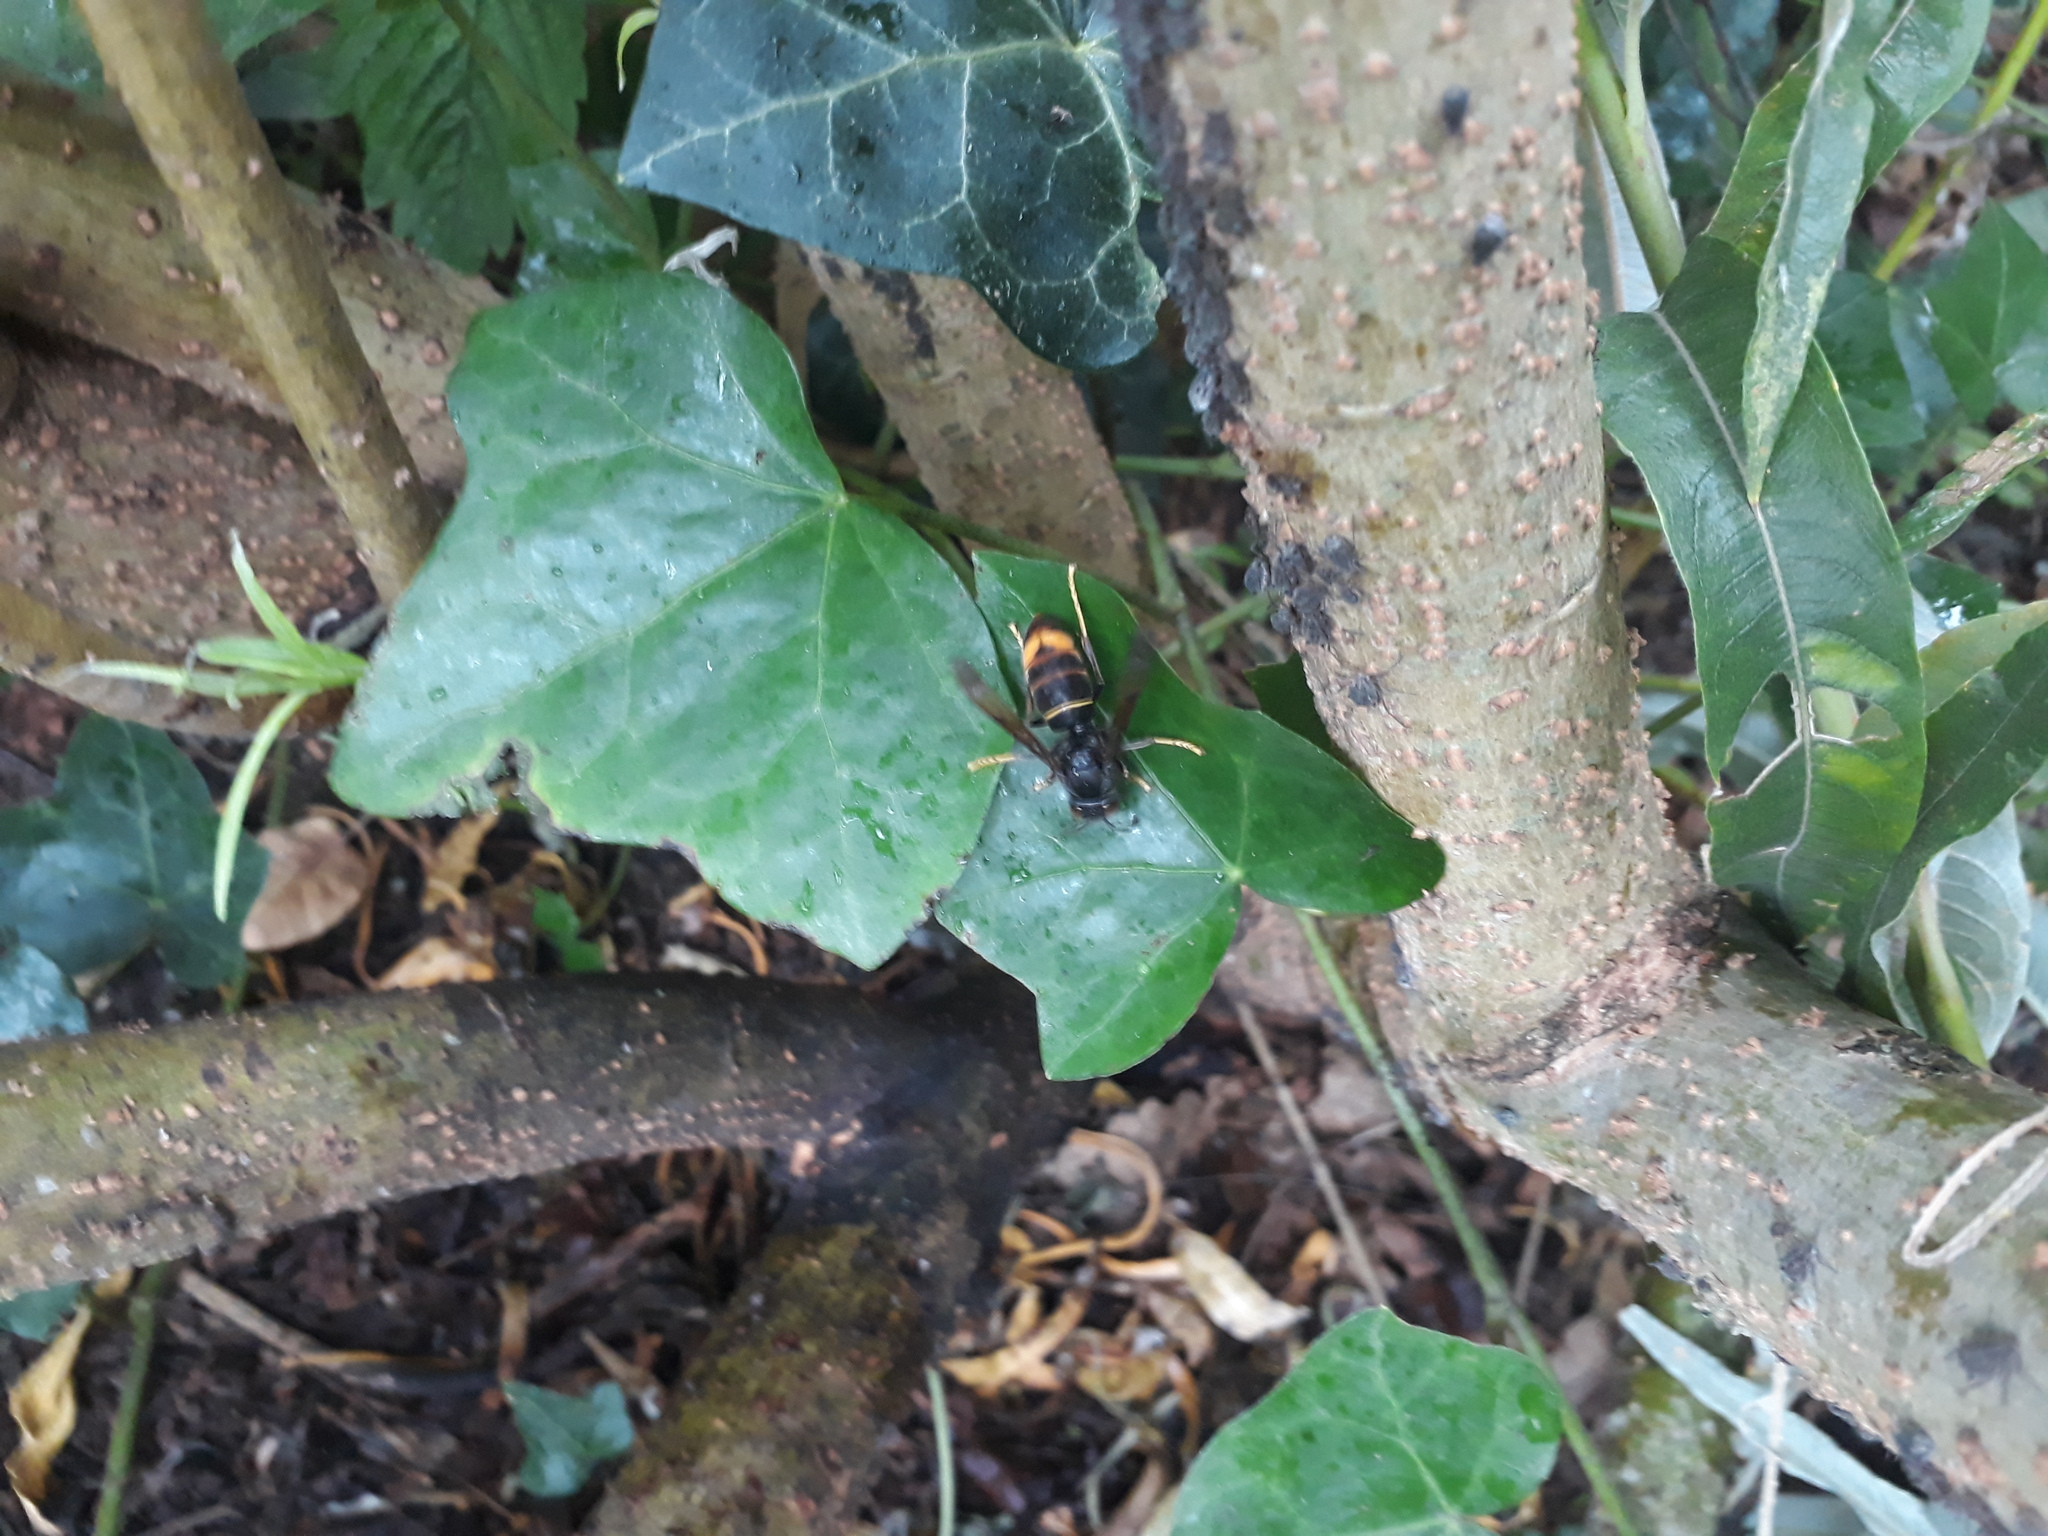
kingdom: Animalia
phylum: Arthropoda
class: Insecta
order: Hymenoptera
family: Vespidae
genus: Vespa
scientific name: Vespa velutina
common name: Asian hornet
